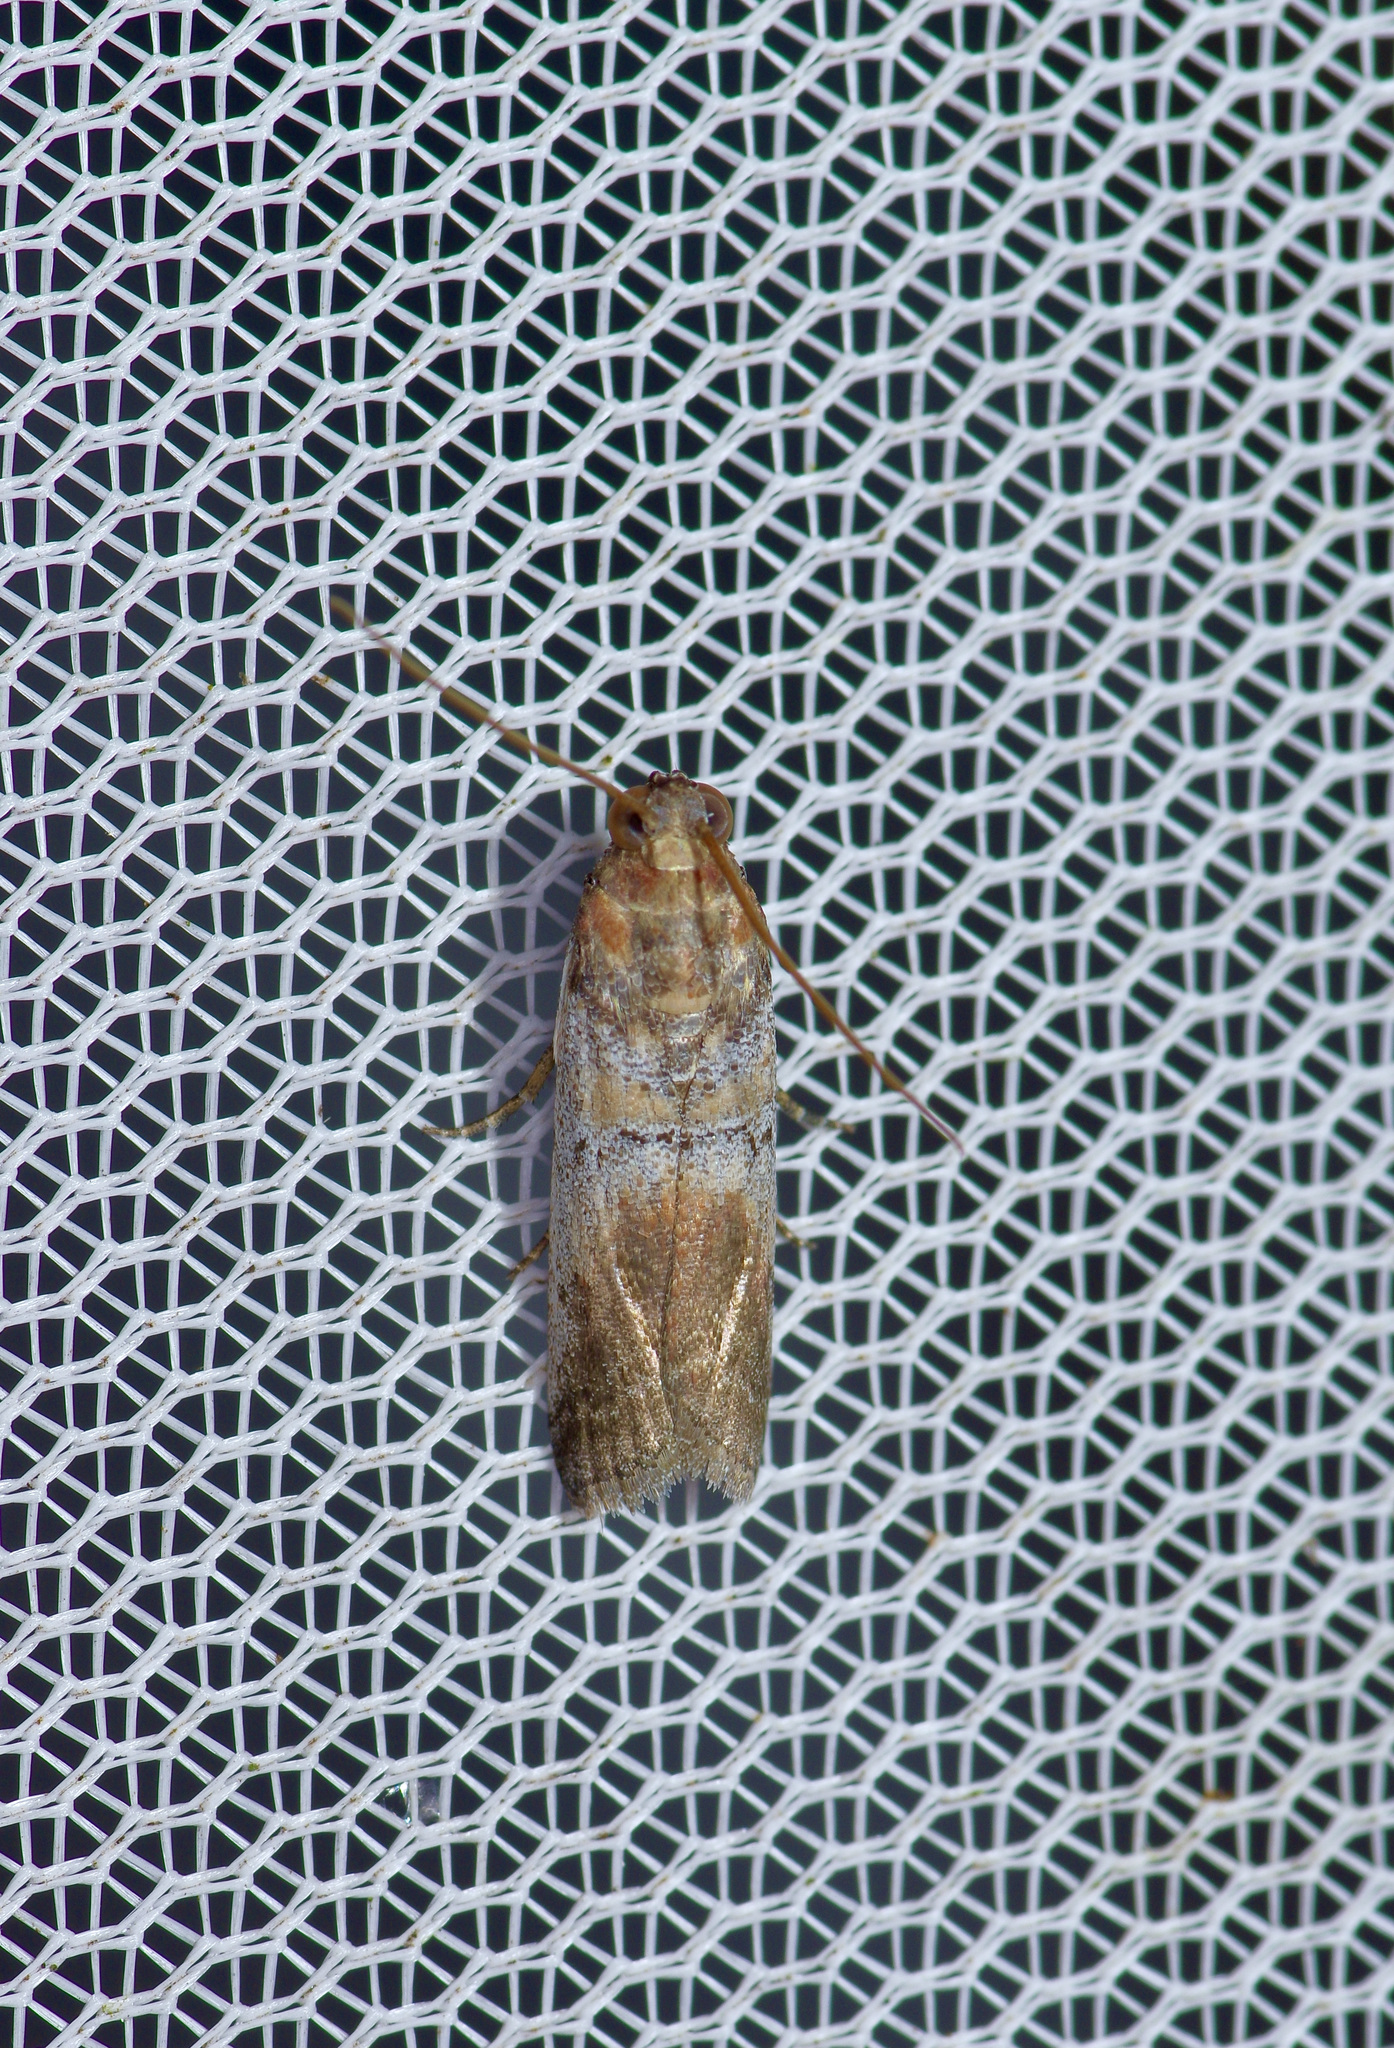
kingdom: Animalia
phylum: Arthropoda
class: Insecta
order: Lepidoptera
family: Pyralidae
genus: Chararica
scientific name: Chararica hystriculella
